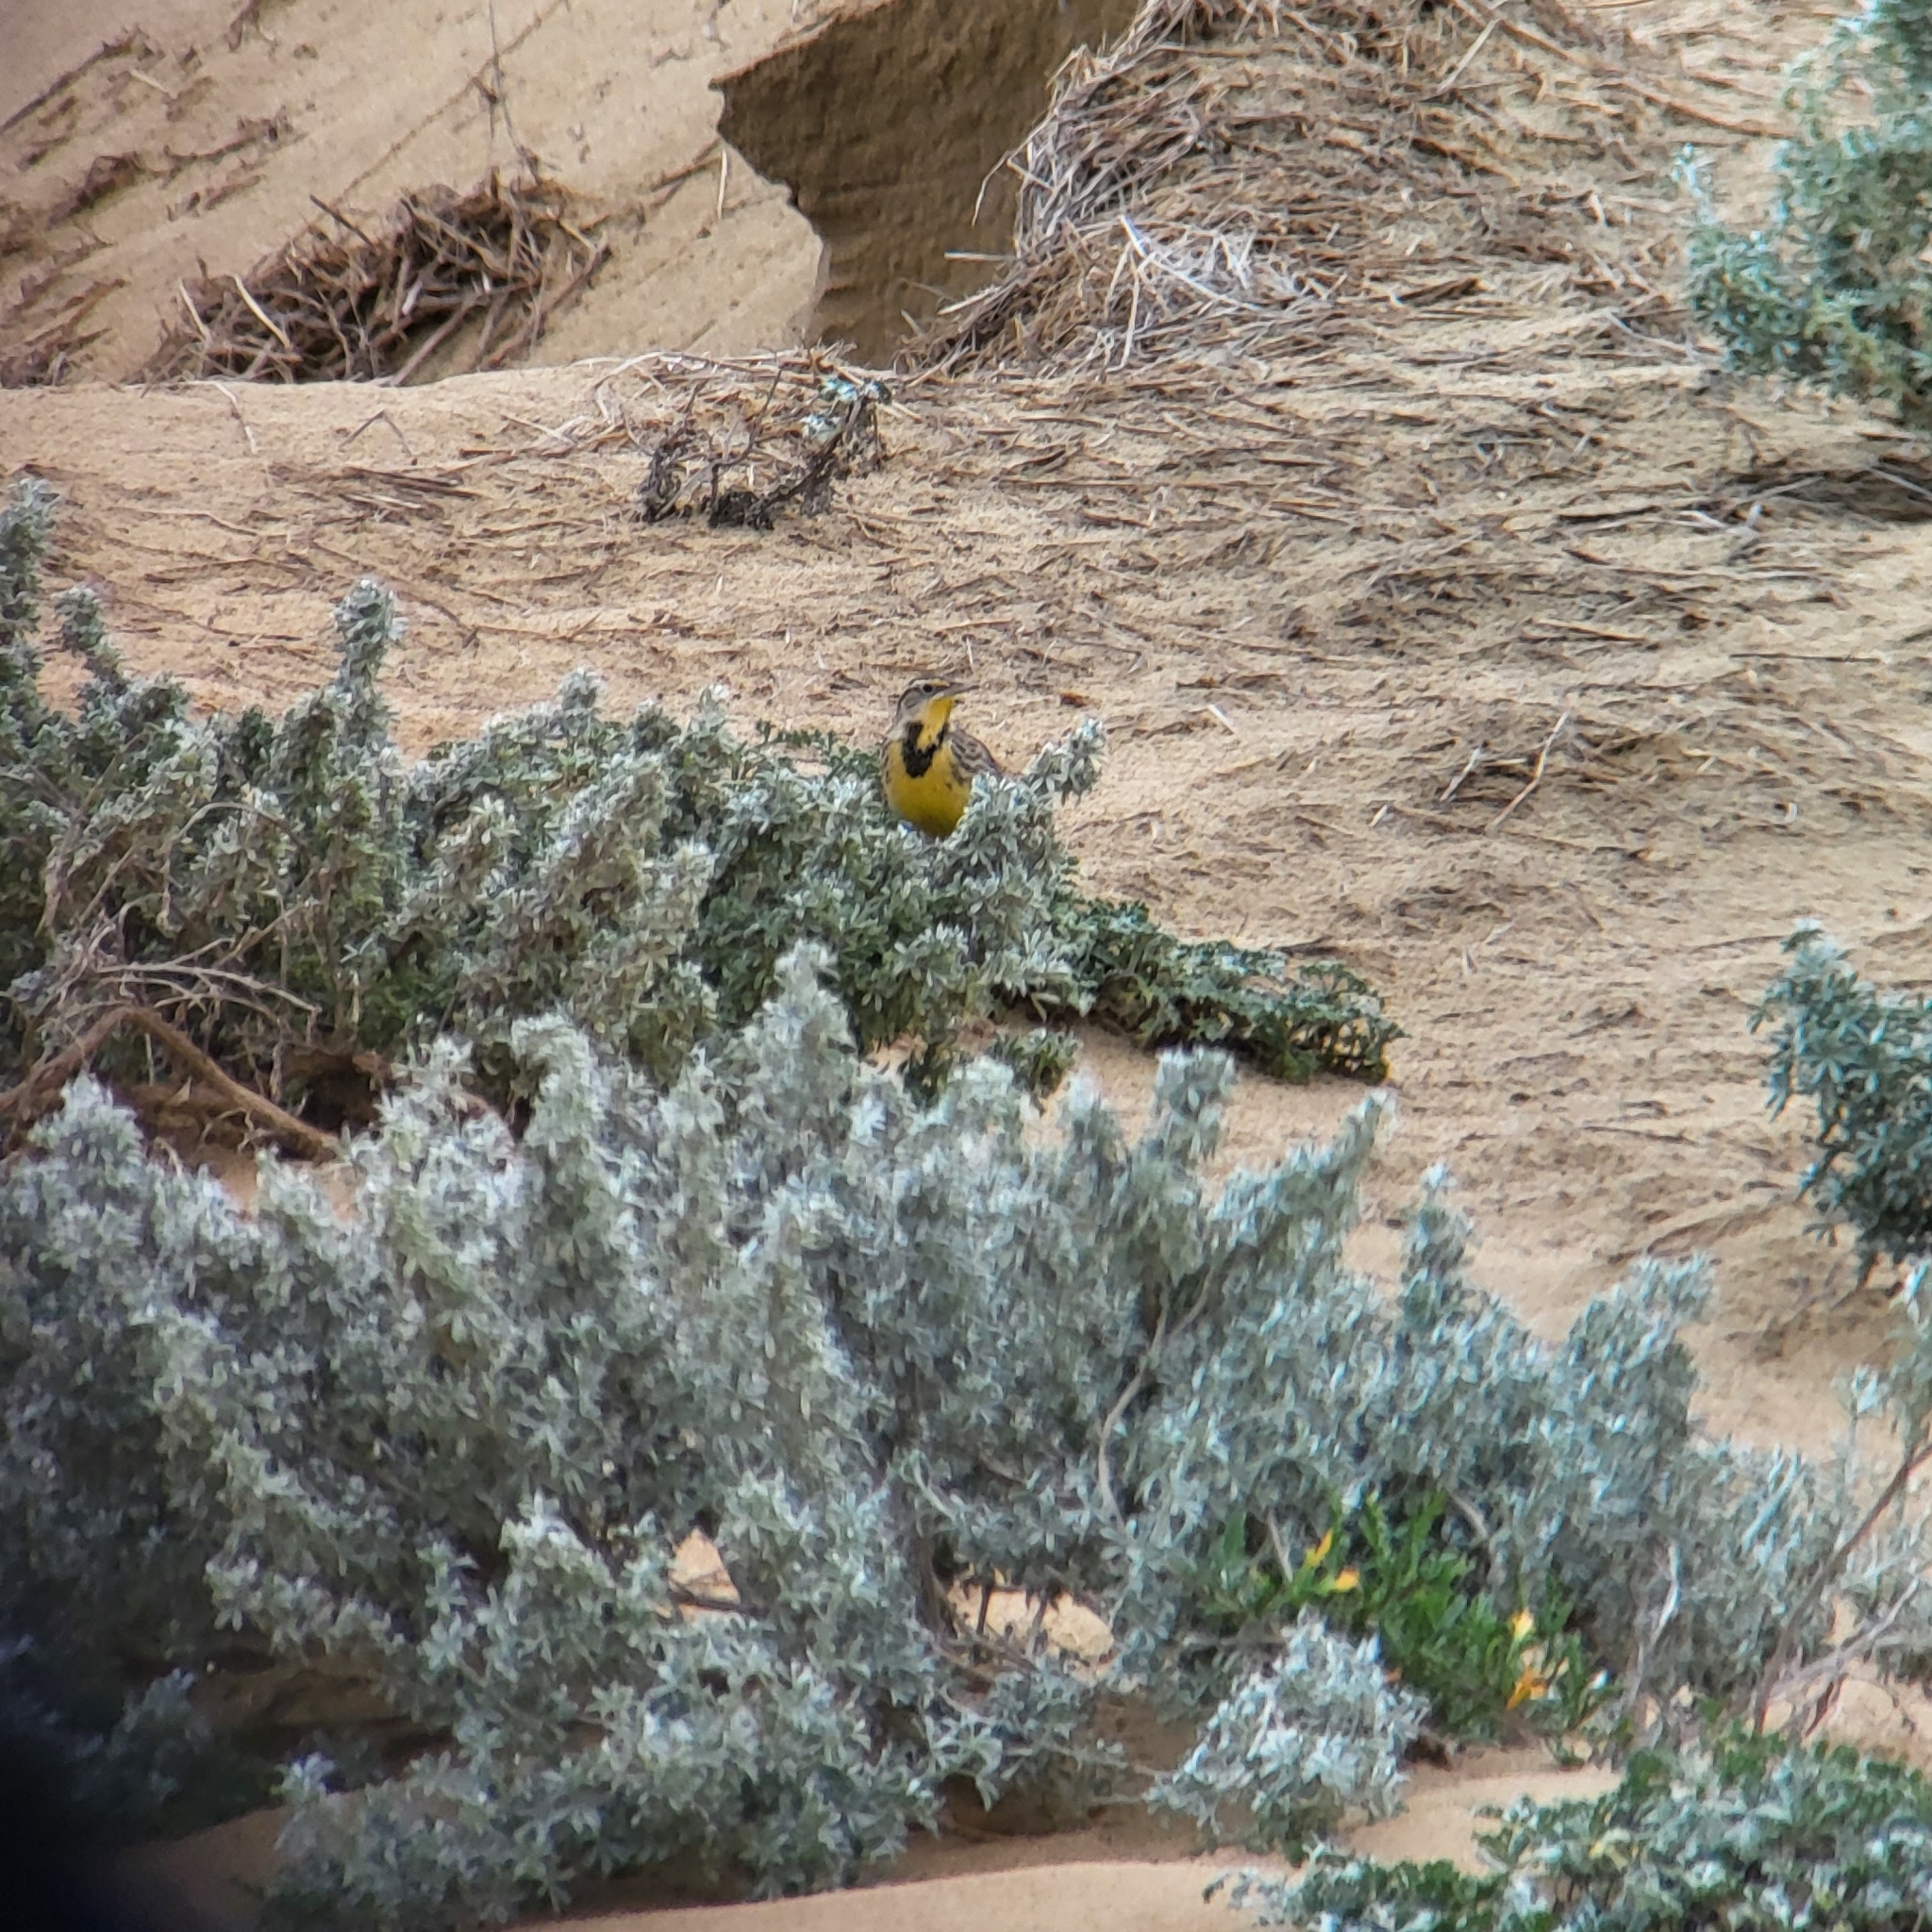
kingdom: Animalia
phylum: Chordata
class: Aves
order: Passeriformes
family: Icteridae
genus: Sturnella
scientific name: Sturnella neglecta
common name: Western meadowlark
